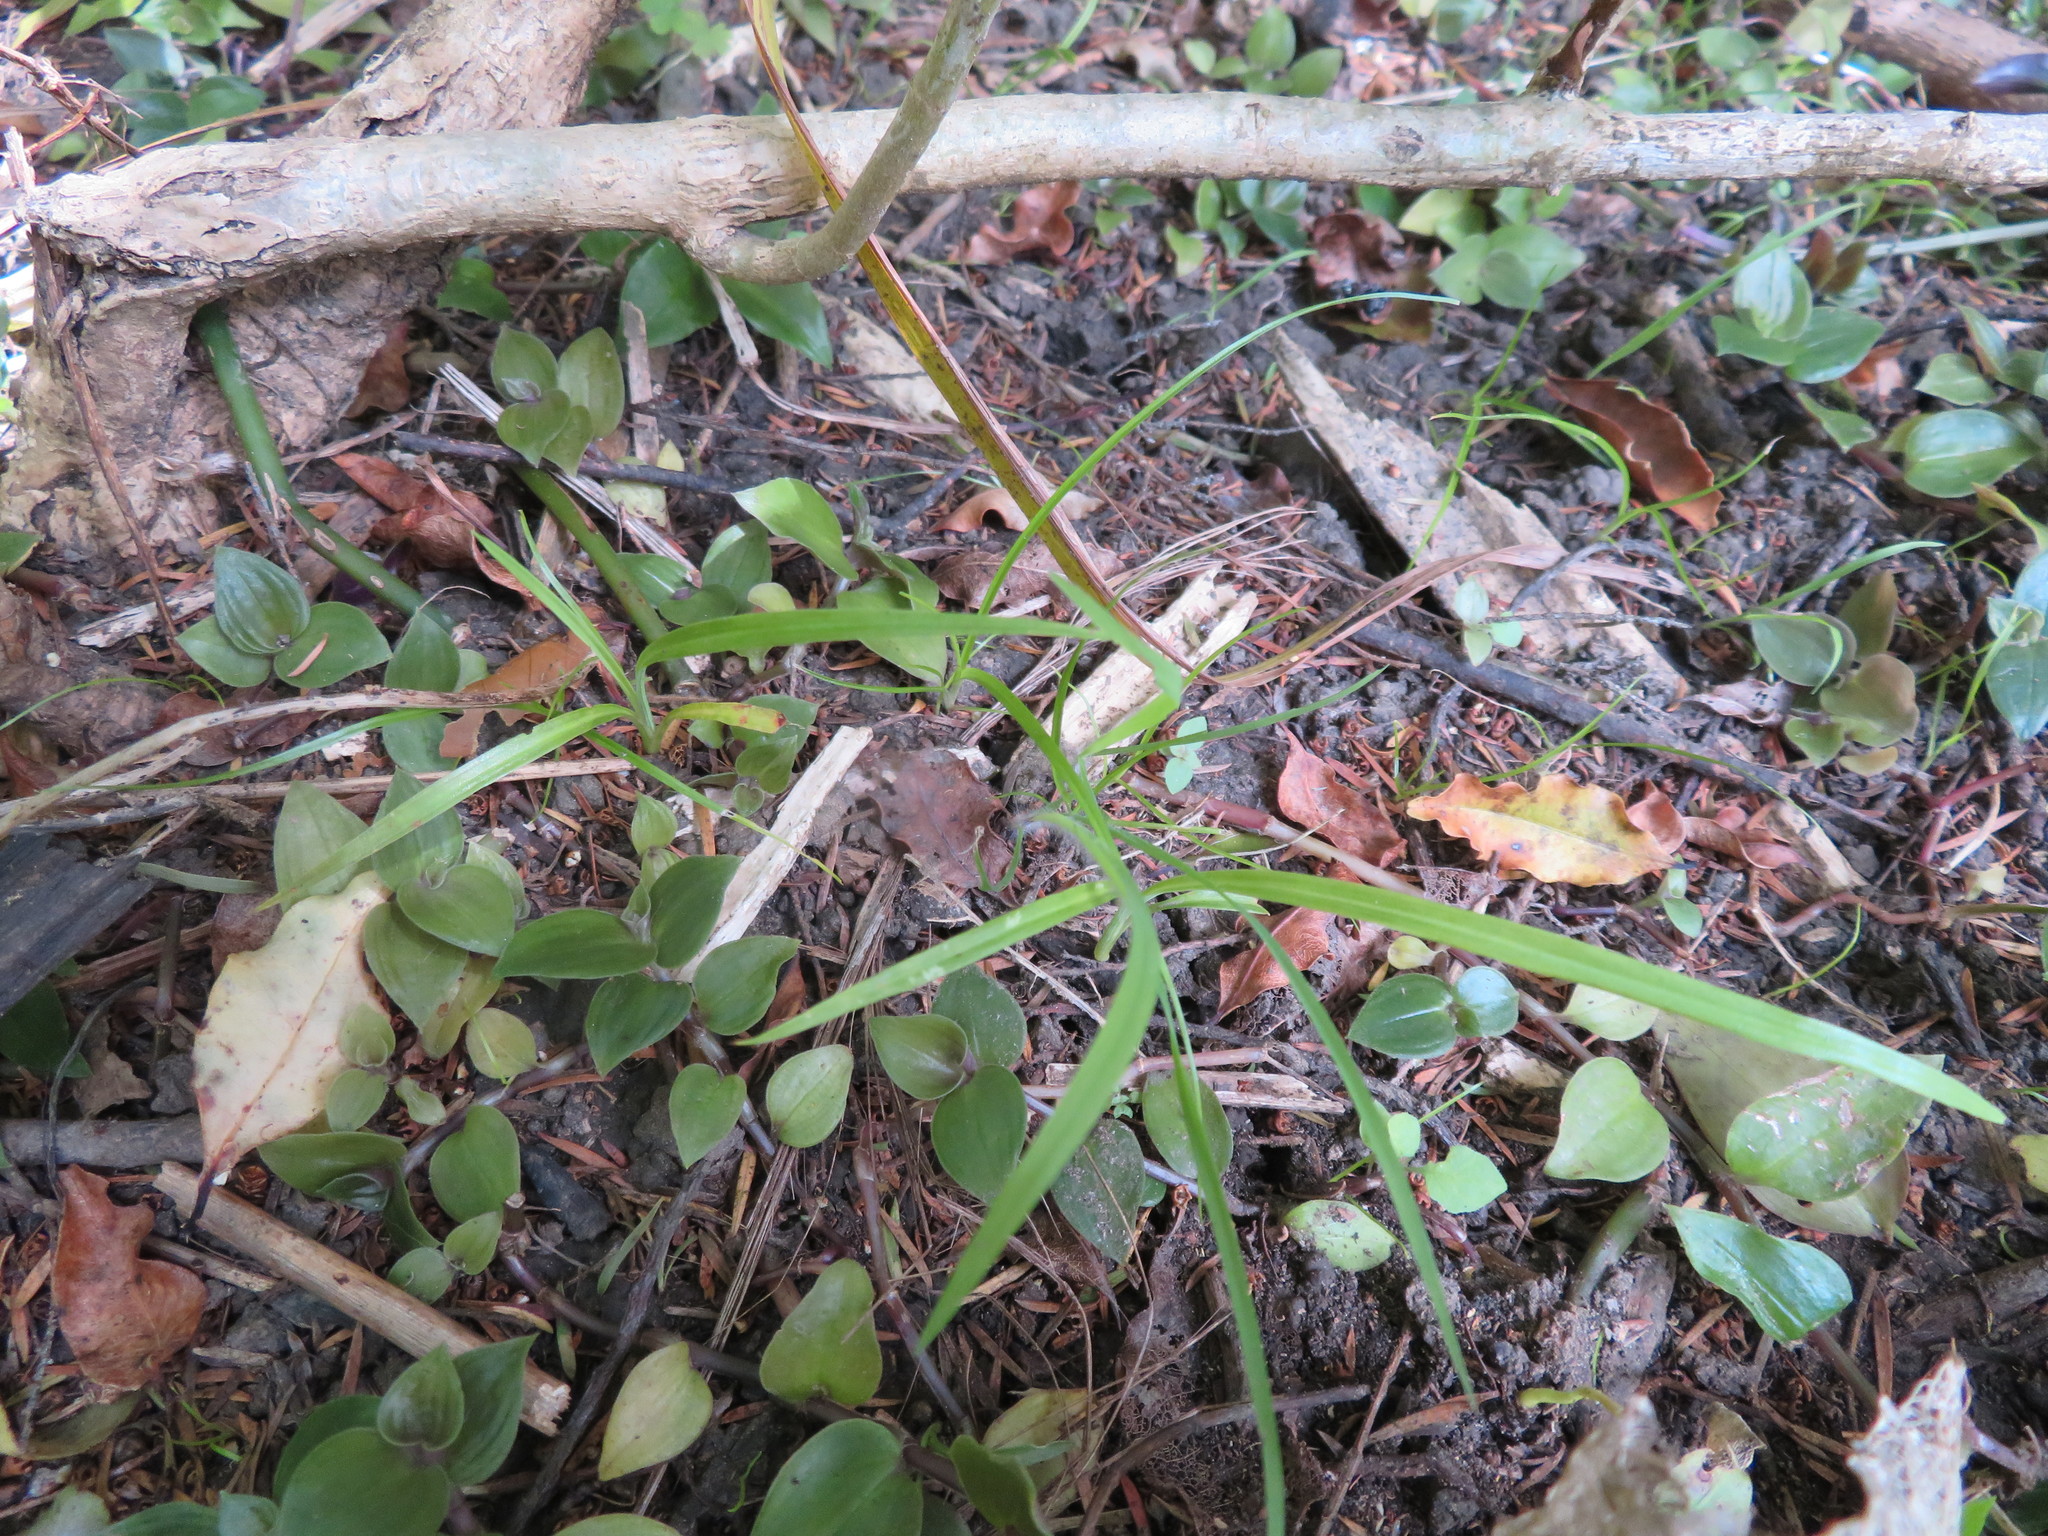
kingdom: Plantae
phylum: Tracheophyta
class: Liliopsida
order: Asparagales
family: Asparagaceae
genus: Cordyline
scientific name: Cordyline australis
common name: Cabbage-palm
